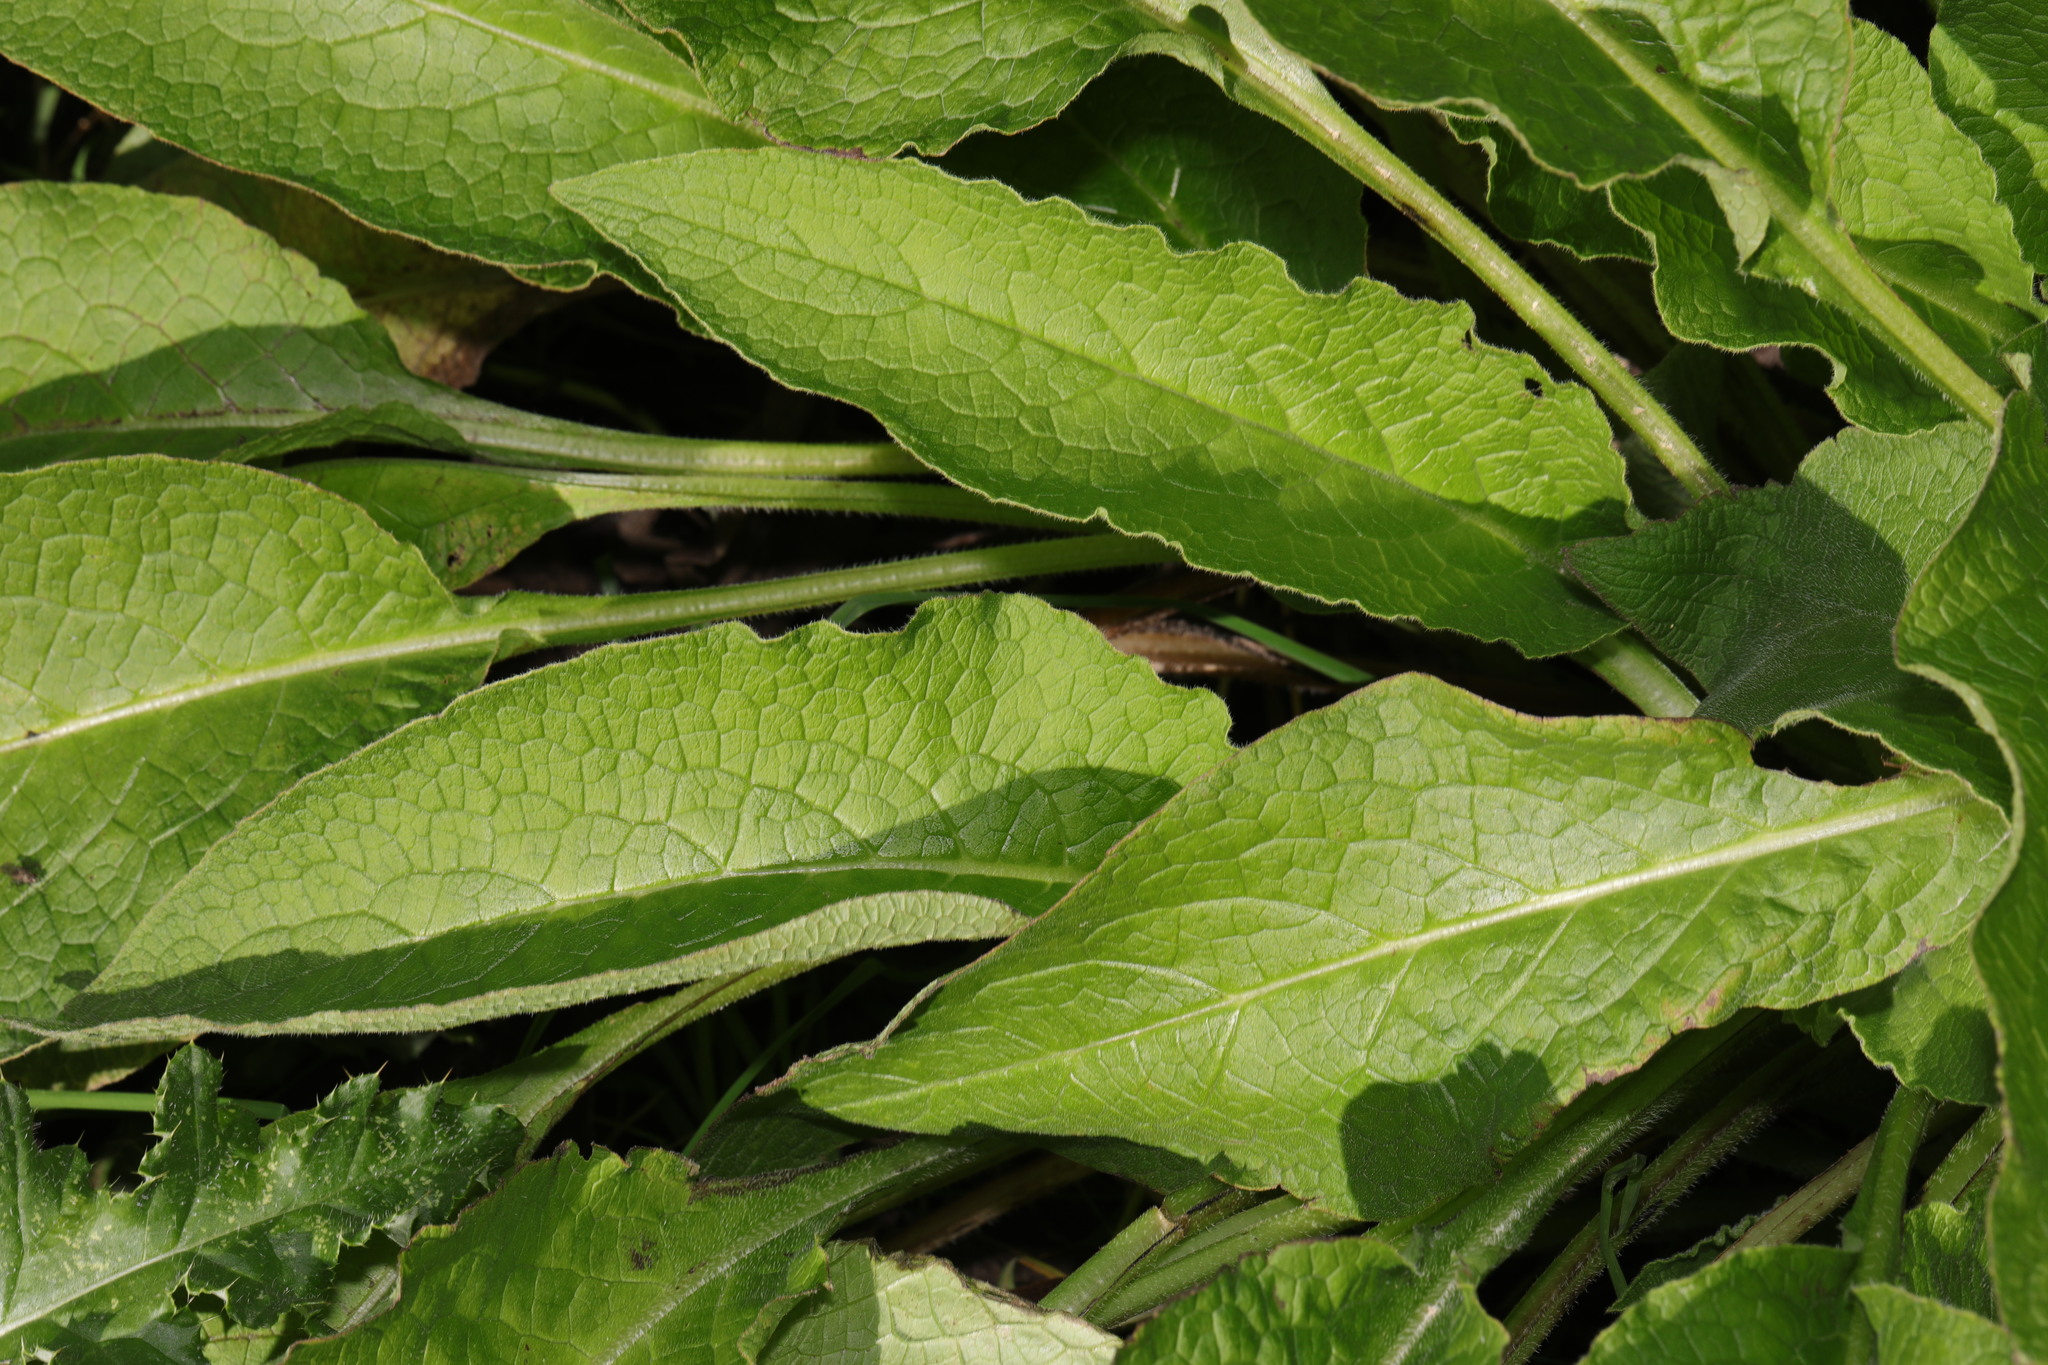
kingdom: Plantae
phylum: Tracheophyta
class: Magnoliopsida
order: Boraginales
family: Boraginaceae
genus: Symphytum
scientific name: Symphytum officinale
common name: Common comfrey
